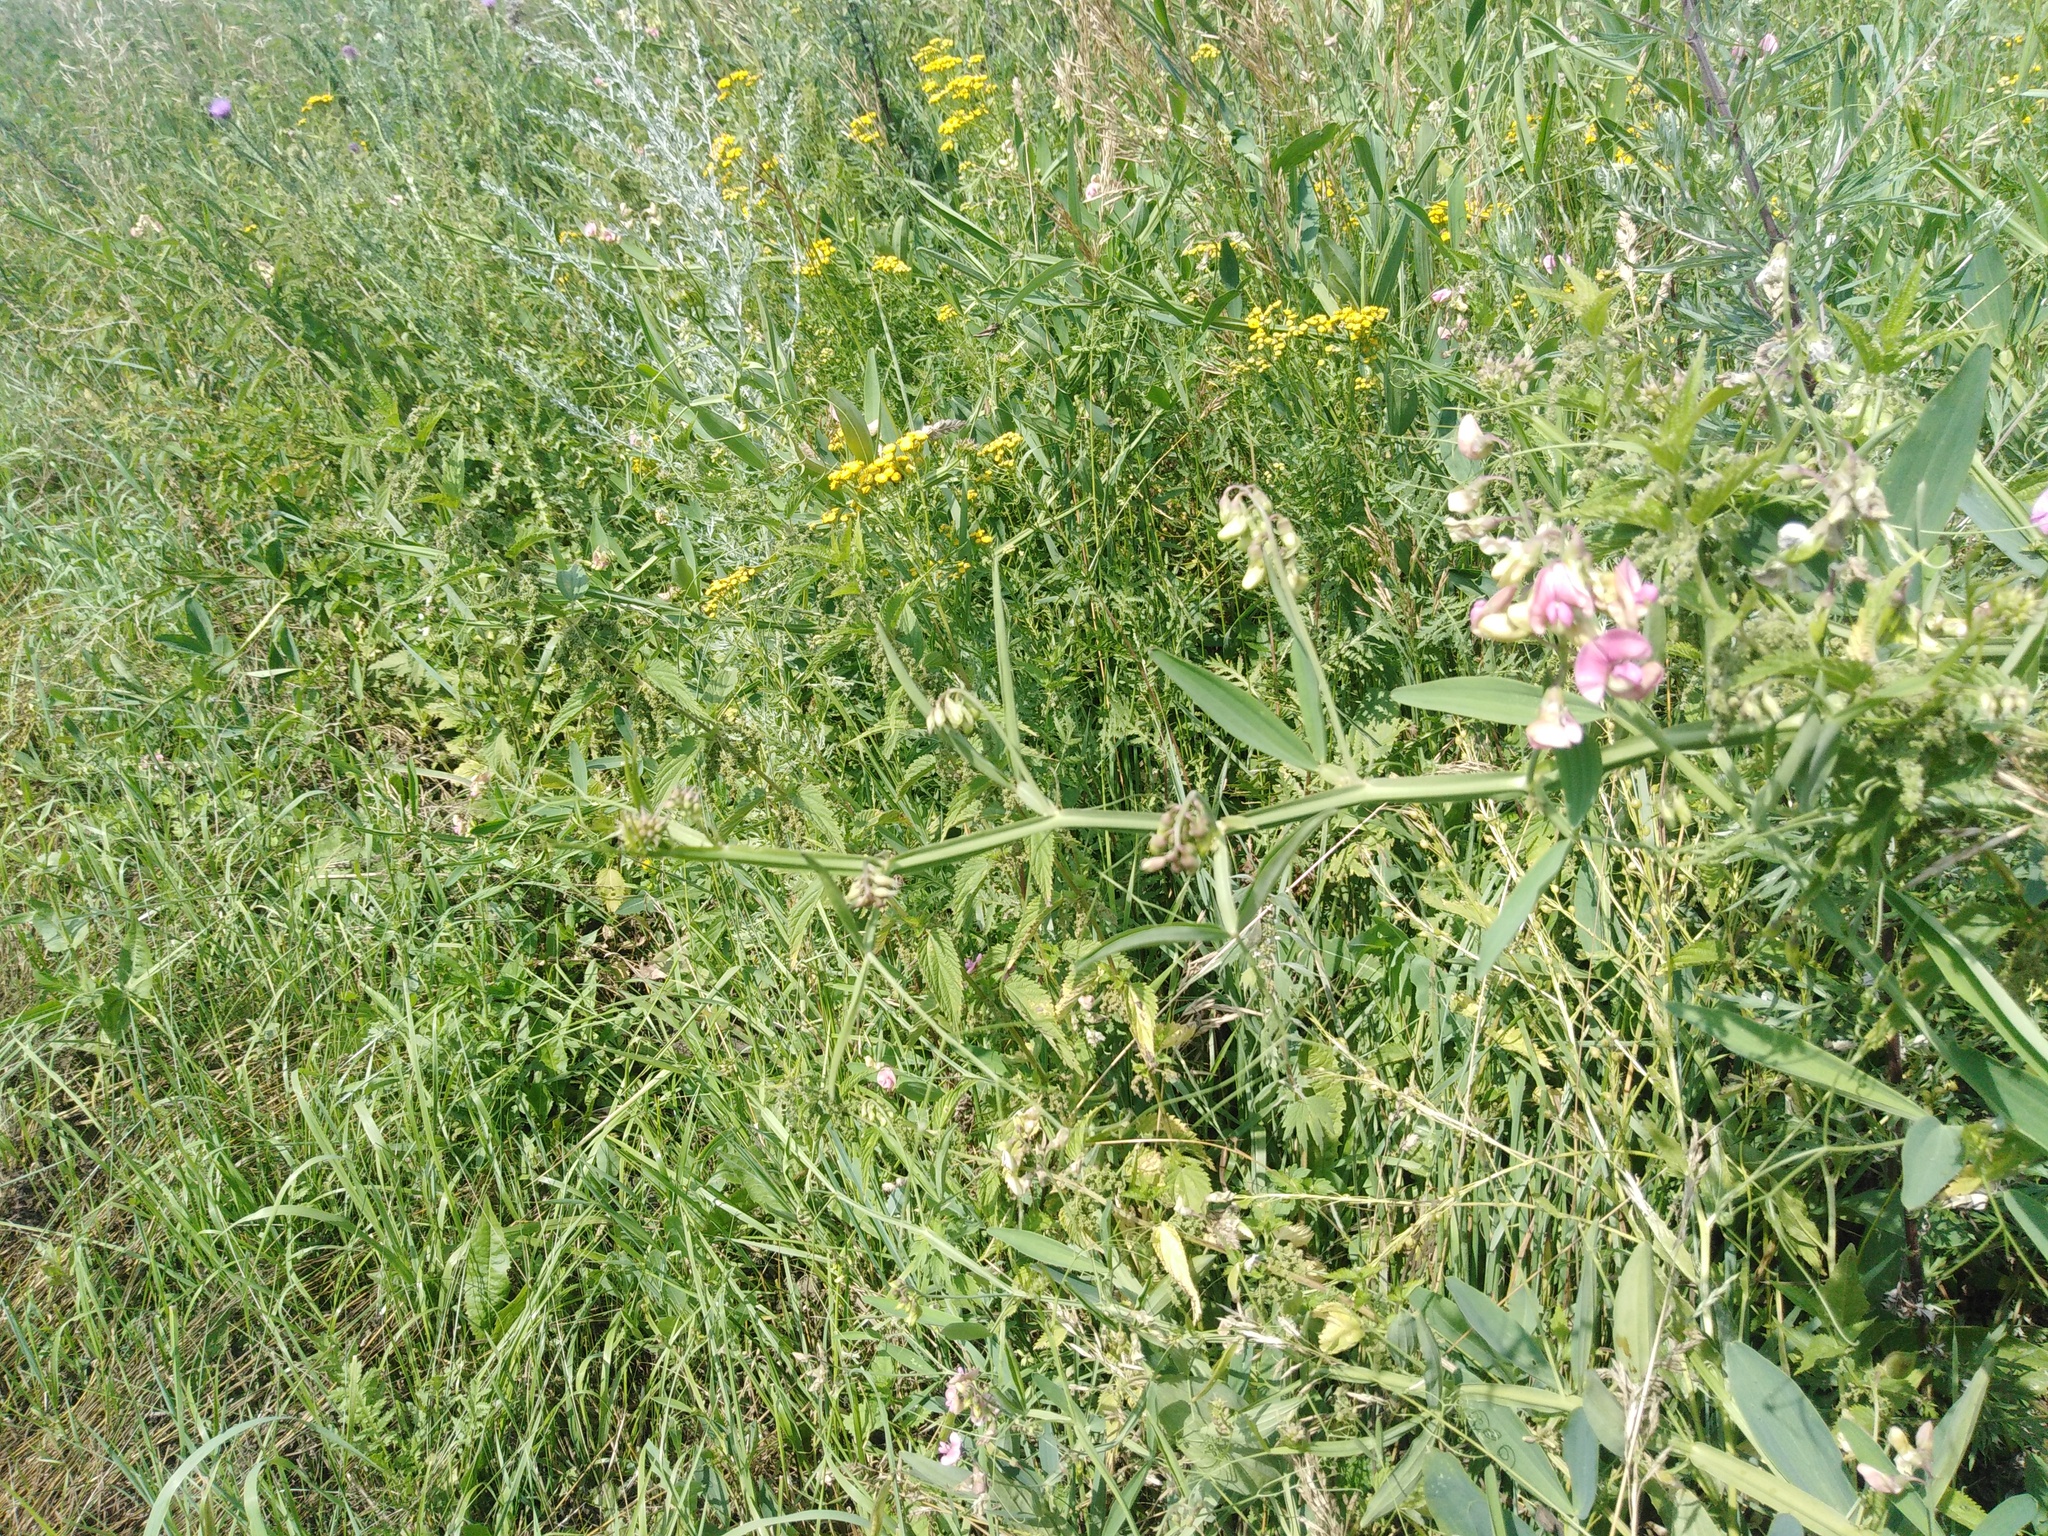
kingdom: Plantae
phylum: Tracheophyta
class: Magnoliopsida
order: Fabales
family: Fabaceae
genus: Lathyrus
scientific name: Lathyrus sylvestris
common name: Flat pea
